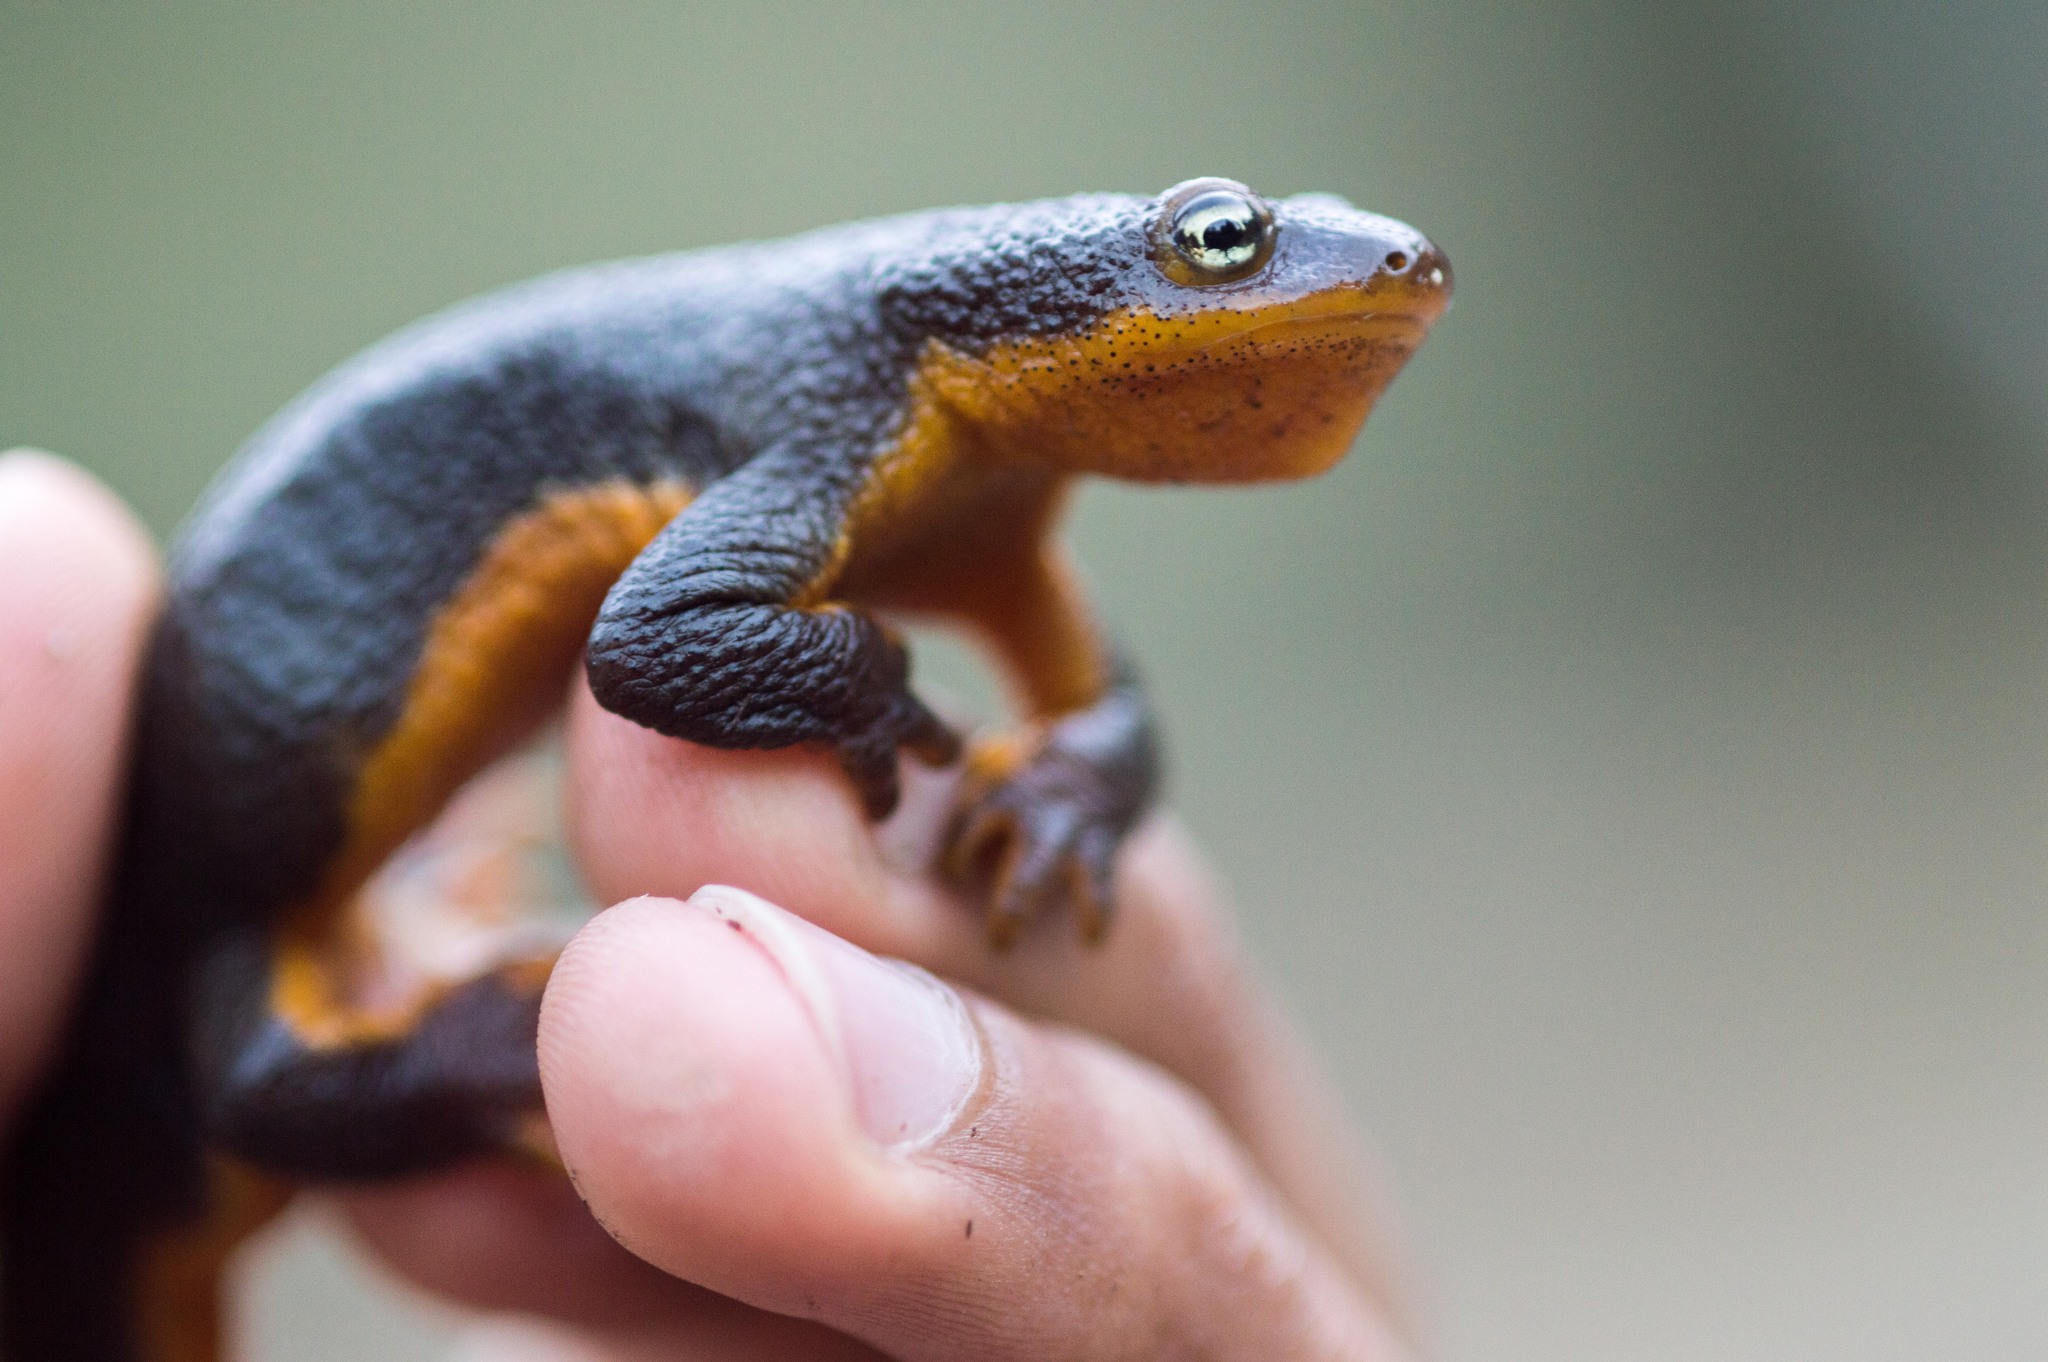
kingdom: Animalia
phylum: Chordata
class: Amphibia
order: Caudata
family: Salamandridae
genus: Taricha
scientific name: Taricha granulosa
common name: Roughskin newt
